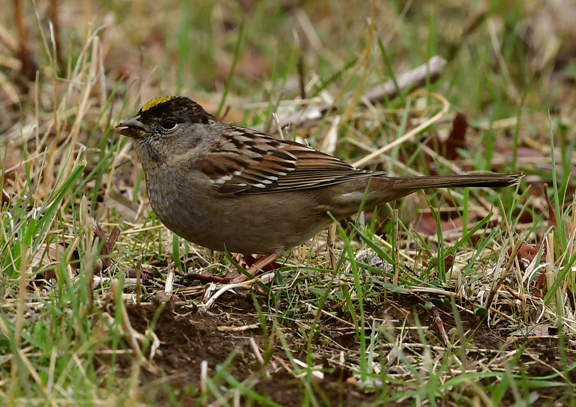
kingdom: Animalia
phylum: Chordata
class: Aves
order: Passeriformes
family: Passerellidae
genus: Zonotrichia
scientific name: Zonotrichia atricapilla
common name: Golden-crowned sparrow
